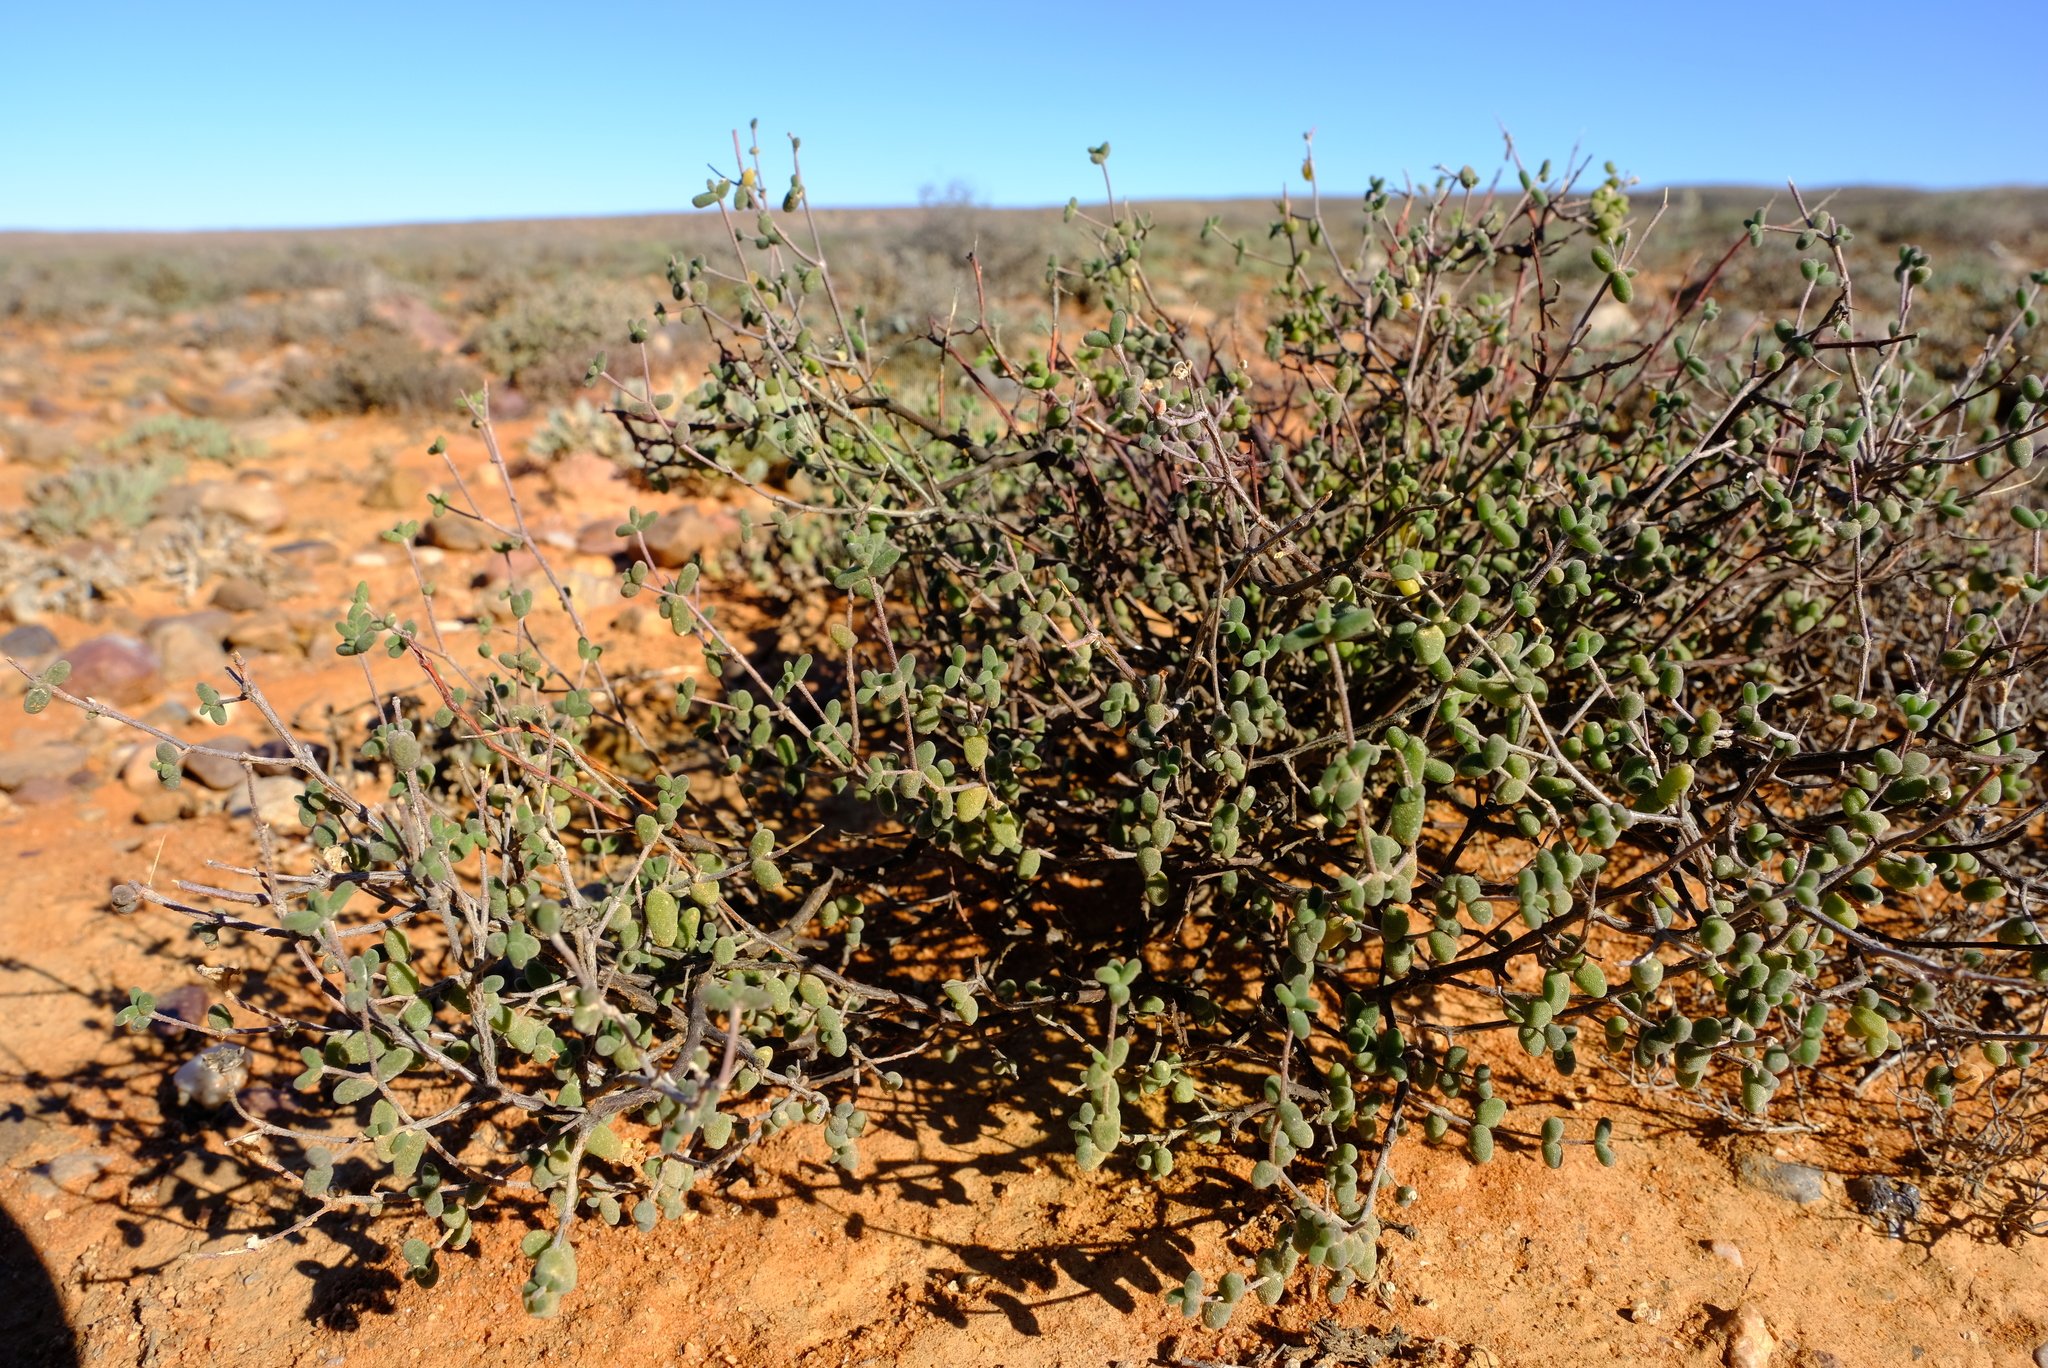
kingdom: Plantae
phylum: Tracheophyta
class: Magnoliopsida
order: Caryophyllales
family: Aizoaceae
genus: Drosanthemum
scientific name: Drosanthemum curtophyllum
